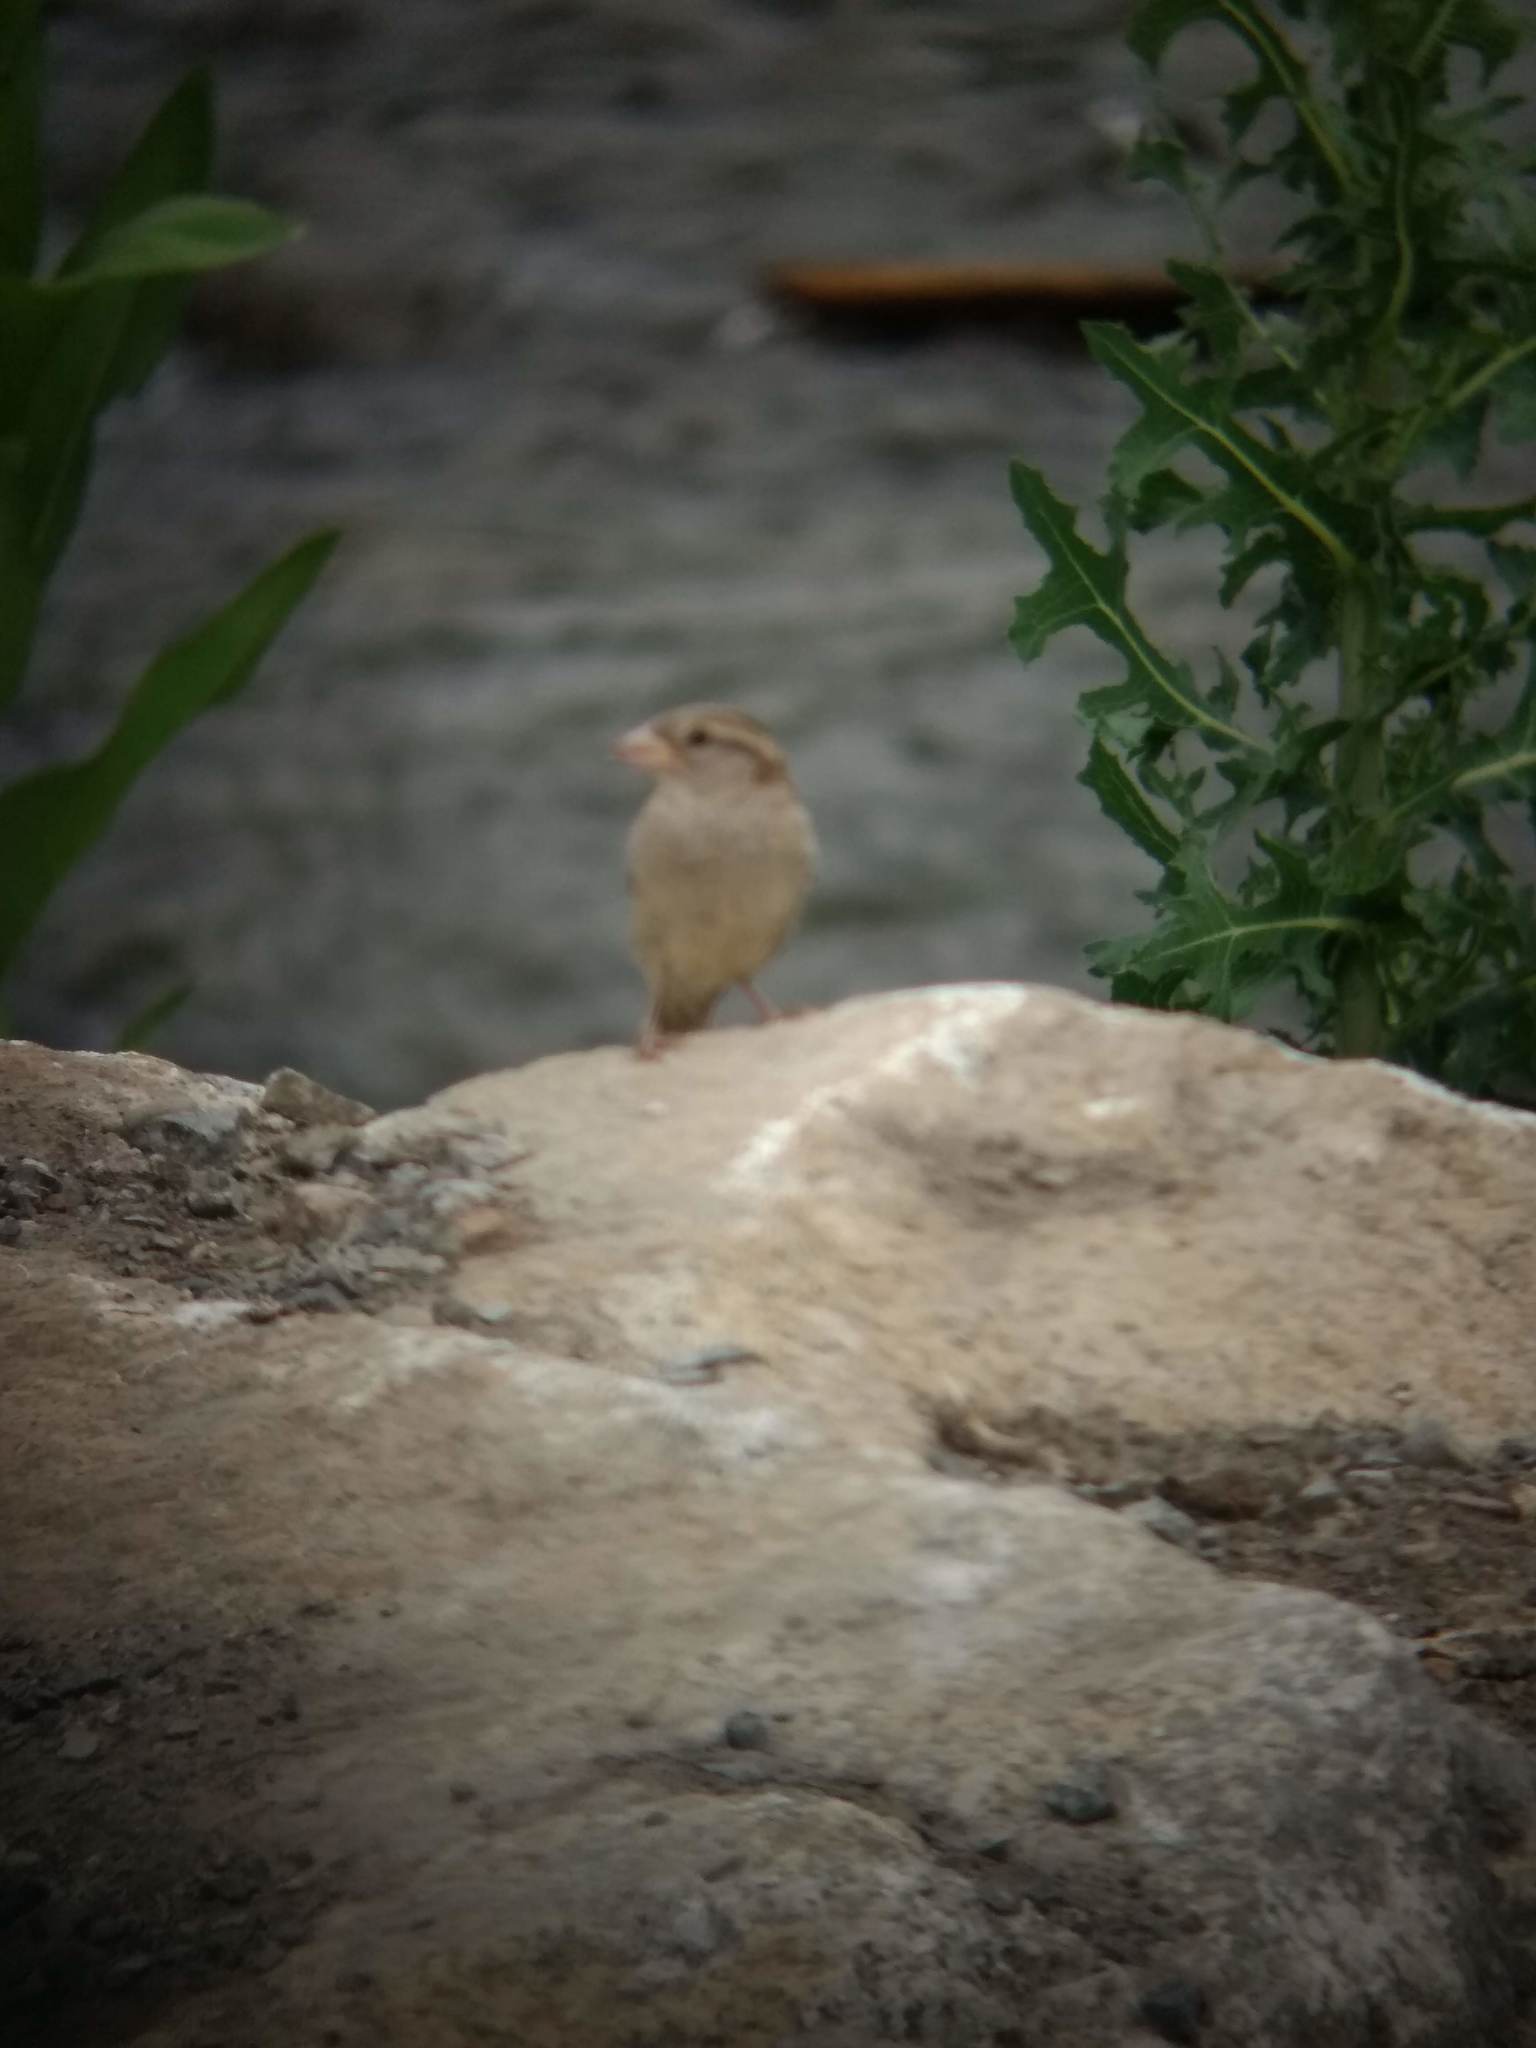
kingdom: Animalia
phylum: Chordata
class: Aves
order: Passeriformes
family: Passeridae
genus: Passer
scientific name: Passer domesticus
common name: House sparrow
